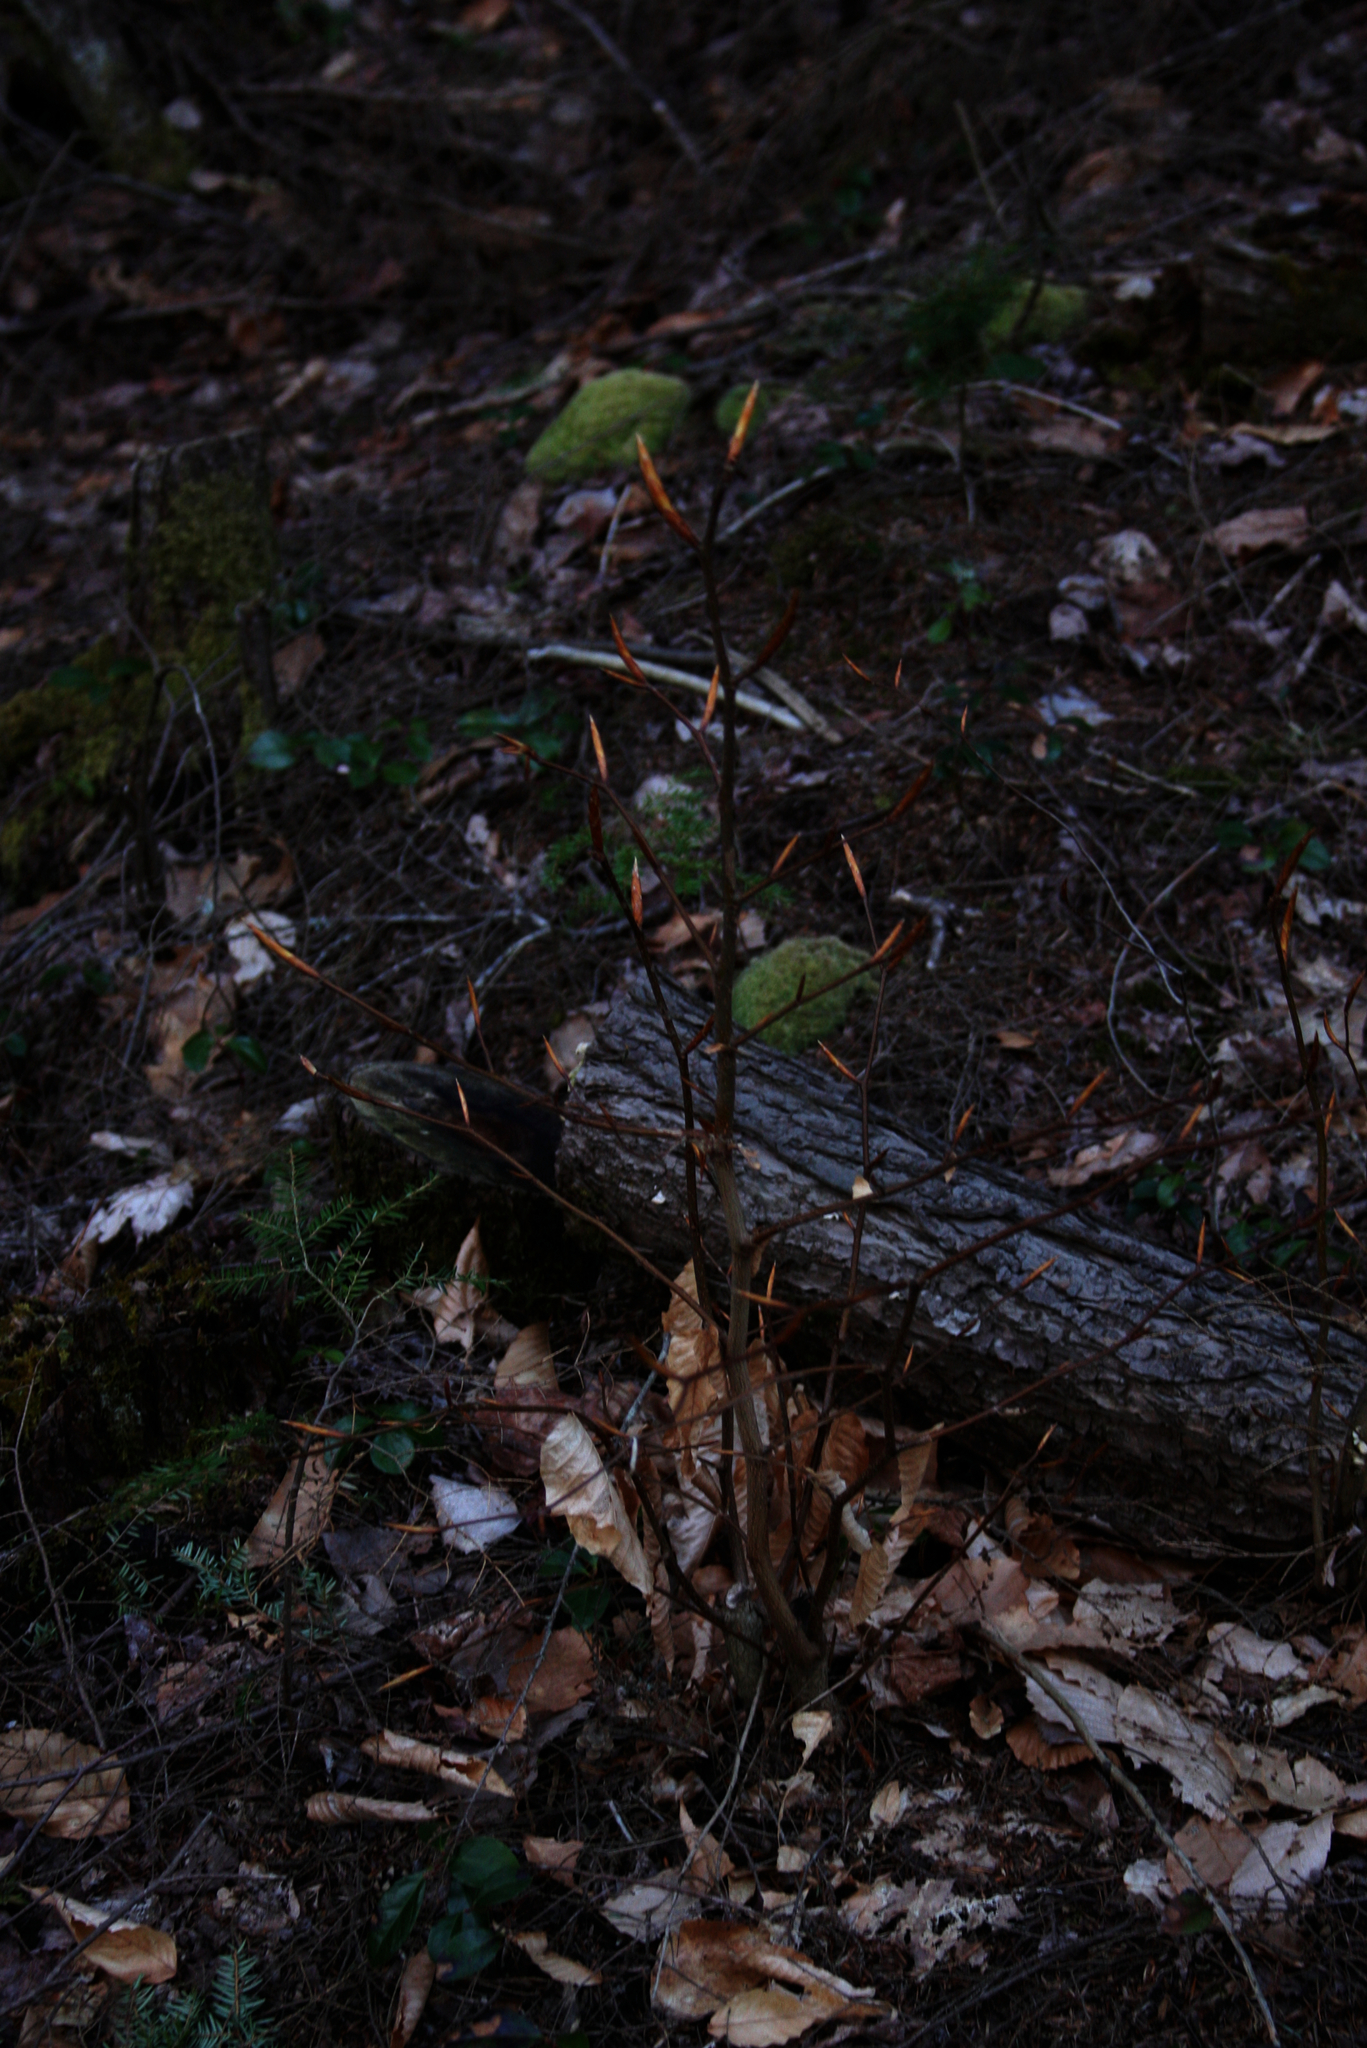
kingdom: Plantae
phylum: Tracheophyta
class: Magnoliopsida
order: Fagales
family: Fagaceae
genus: Fagus
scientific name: Fagus grandifolia
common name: American beech
